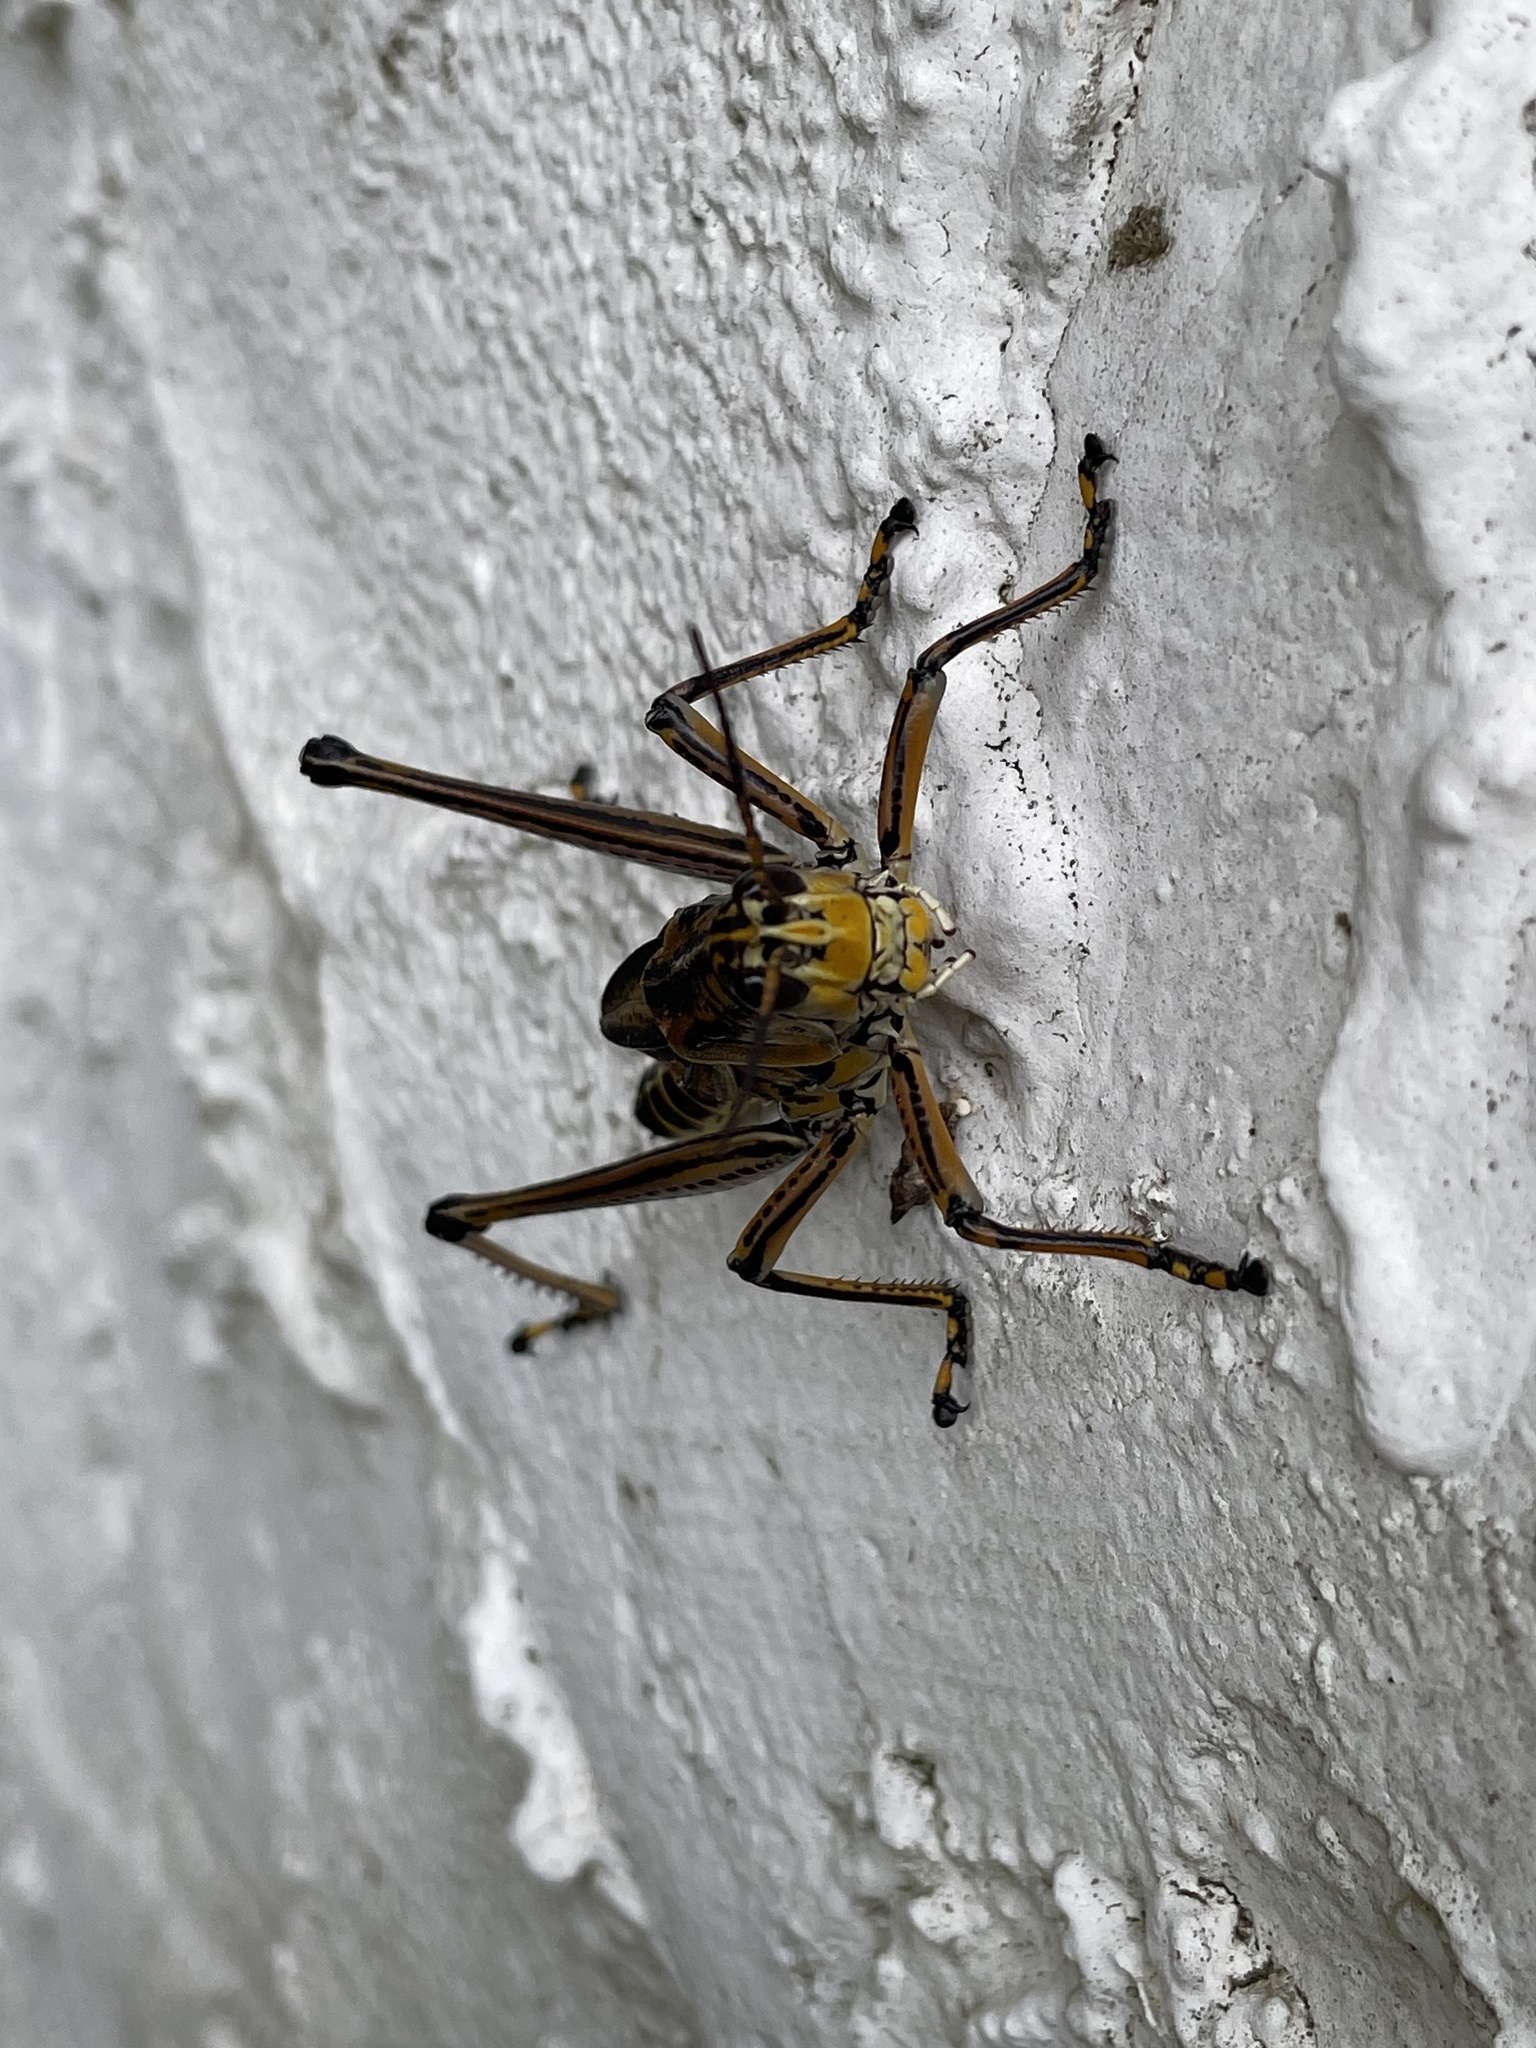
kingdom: Animalia
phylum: Arthropoda
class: Insecta
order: Orthoptera
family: Romaleidae
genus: Romalea
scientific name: Romalea microptera
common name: Eastern lubber grasshopper
